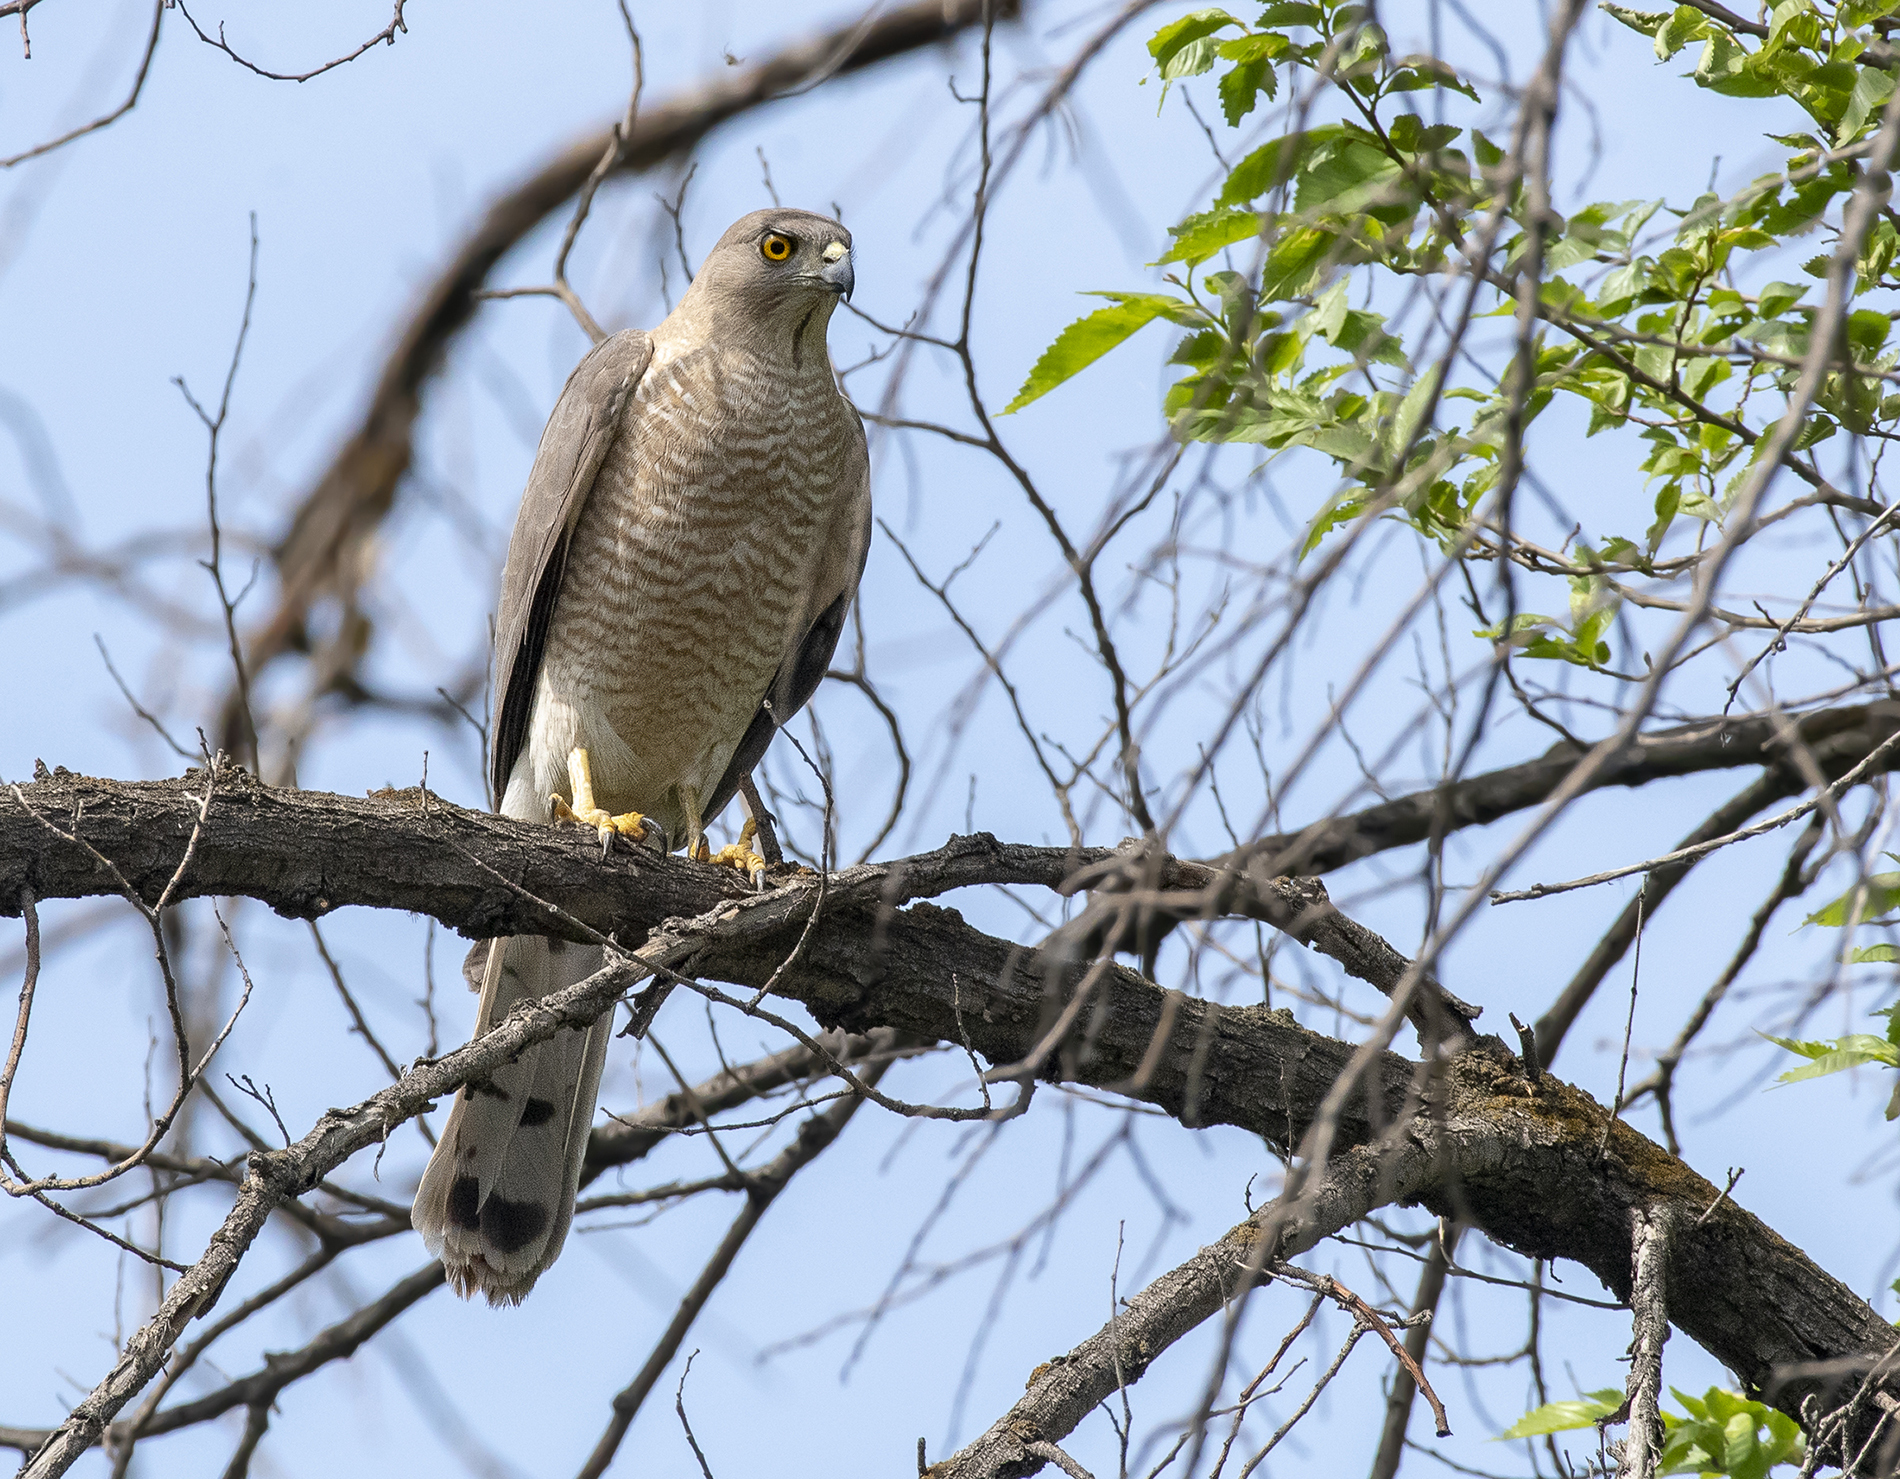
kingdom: Animalia
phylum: Chordata
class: Aves
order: Accipitriformes
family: Accipitridae
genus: Accipiter
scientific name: Accipiter badius
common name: Shikra
